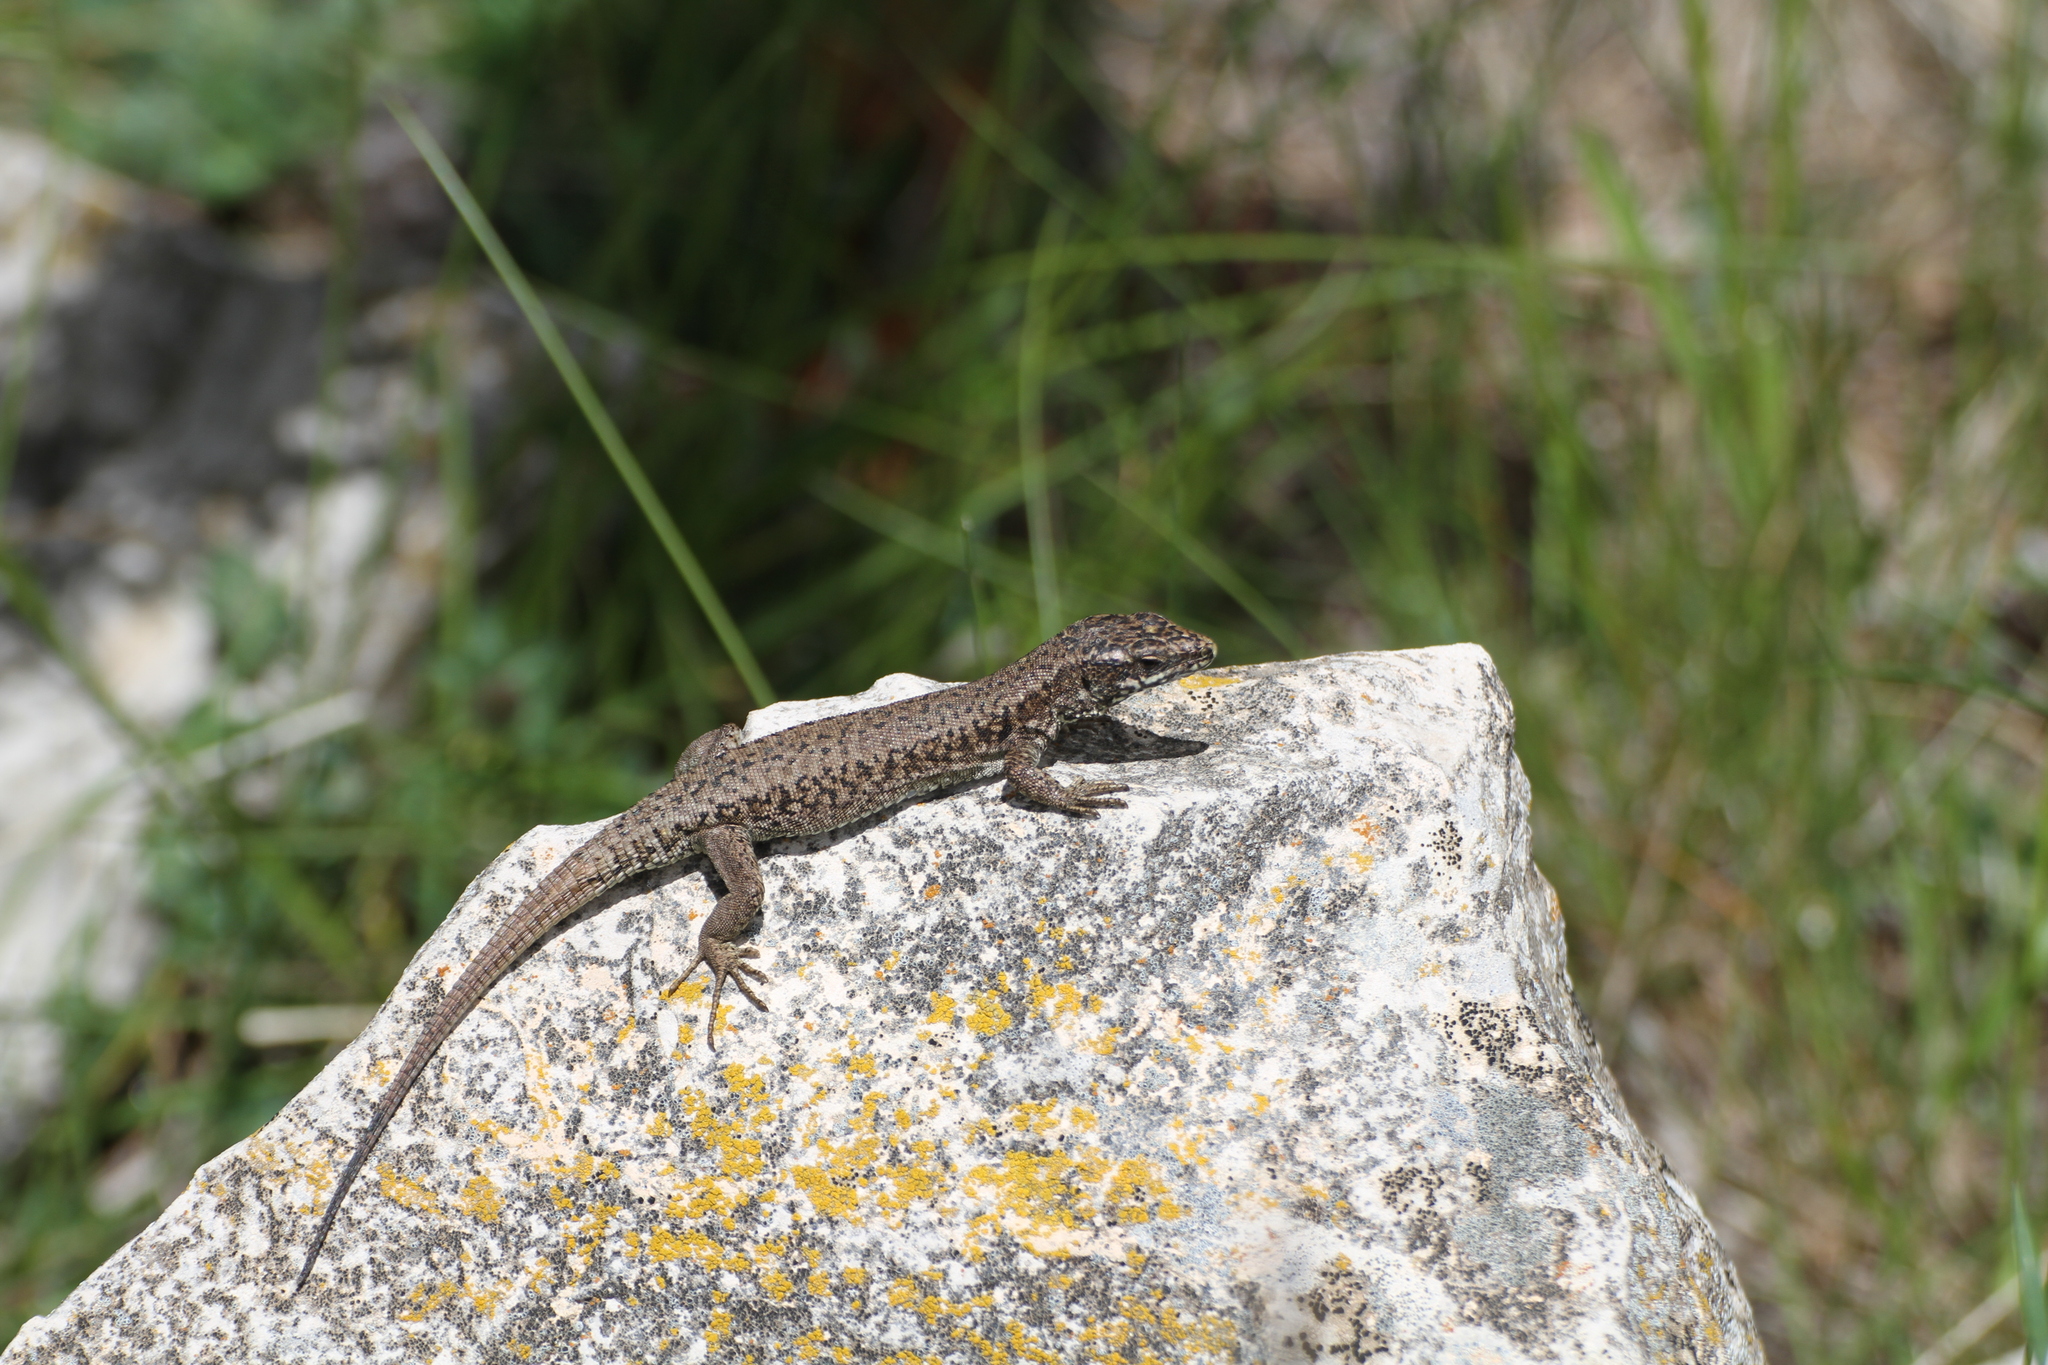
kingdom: Animalia
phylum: Chordata
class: Squamata
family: Lacertidae
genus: Podarcis
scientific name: Podarcis muralis
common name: Common wall lizard
